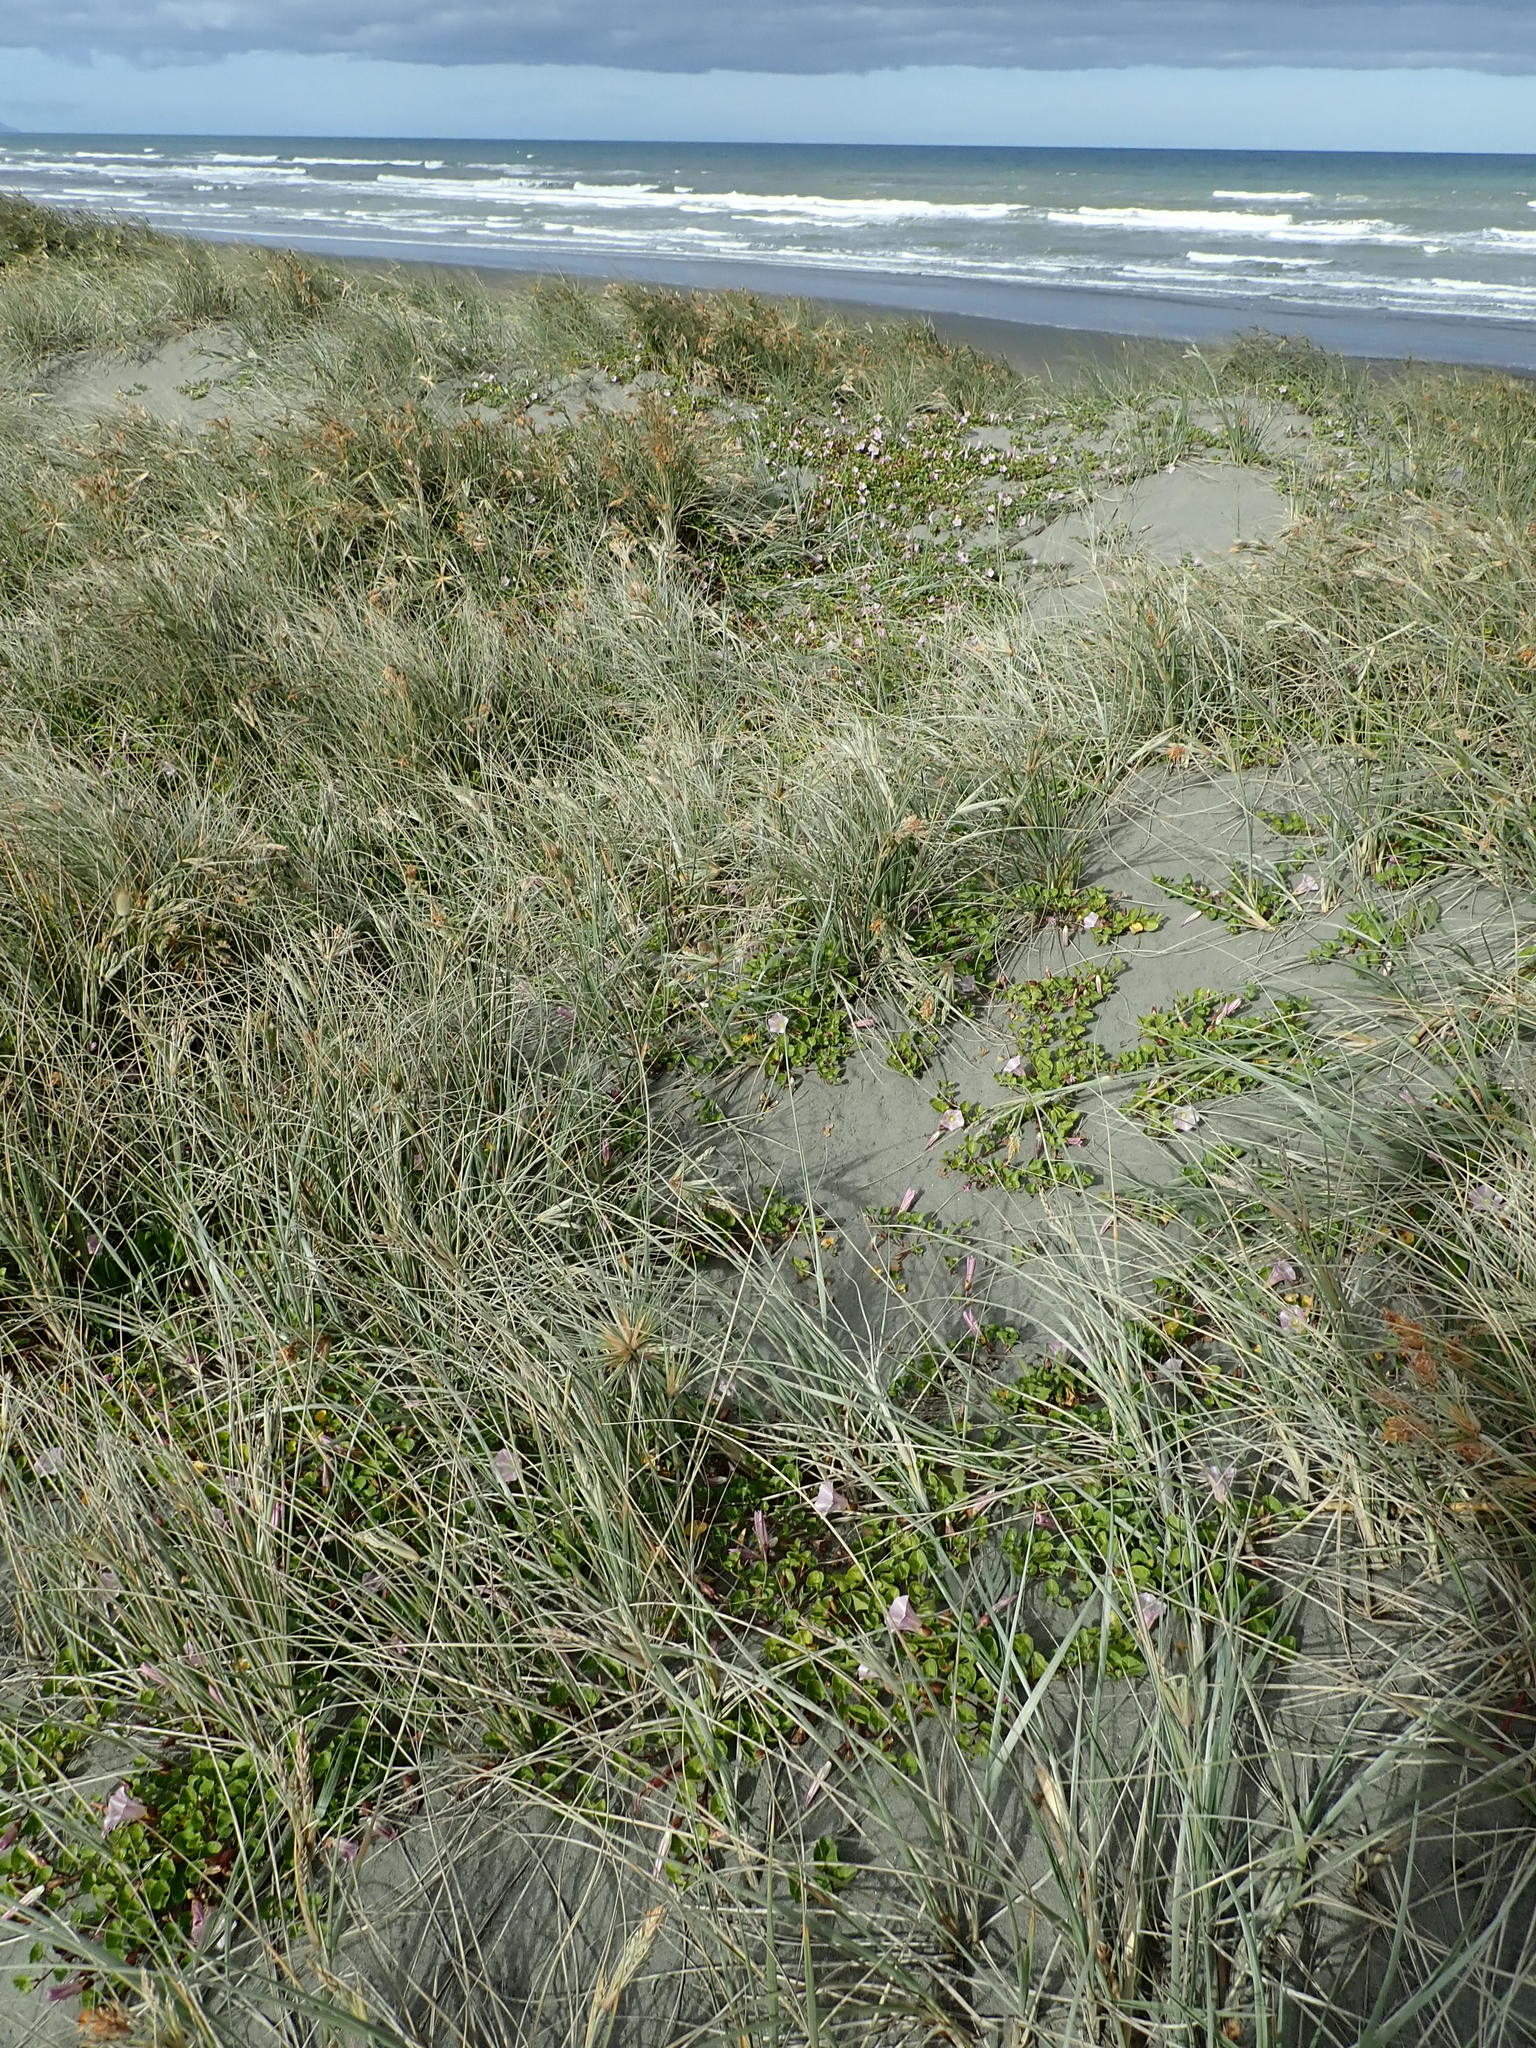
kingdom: Plantae
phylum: Tracheophyta
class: Magnoliopsida
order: Solanales
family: Convolvulaceae
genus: Calystegia
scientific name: Calystegia soldanella
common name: Sea bindweed
